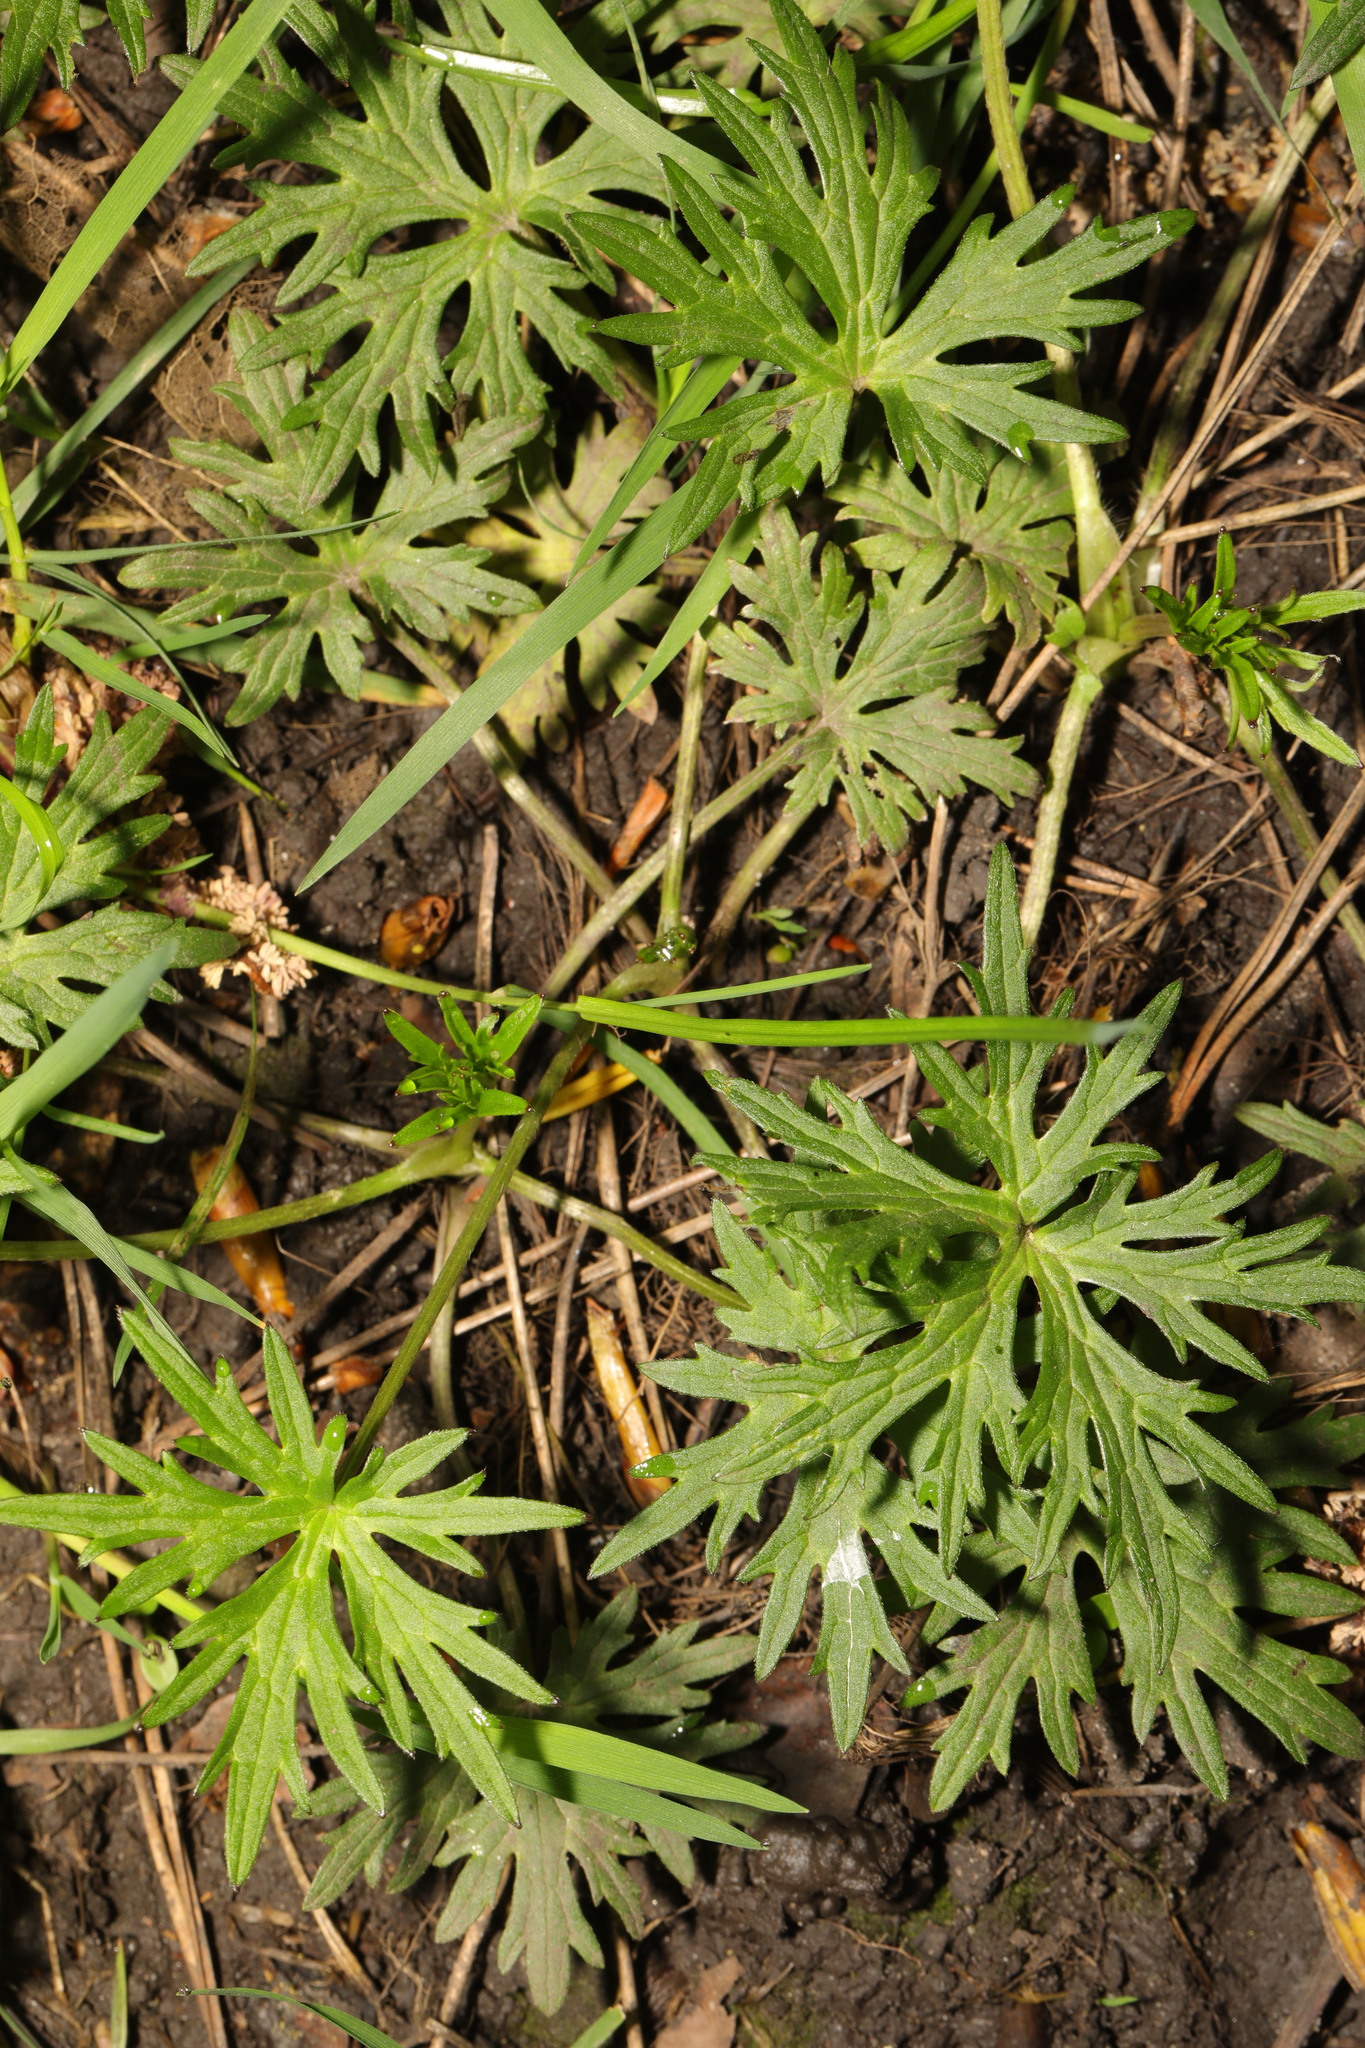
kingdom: Plantae
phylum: Tracheophyta
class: Magnoliopsida
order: Ranunculales
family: Ranunculaceae
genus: Ranunculus
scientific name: Ranunculus acris
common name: Meadow buttercup
